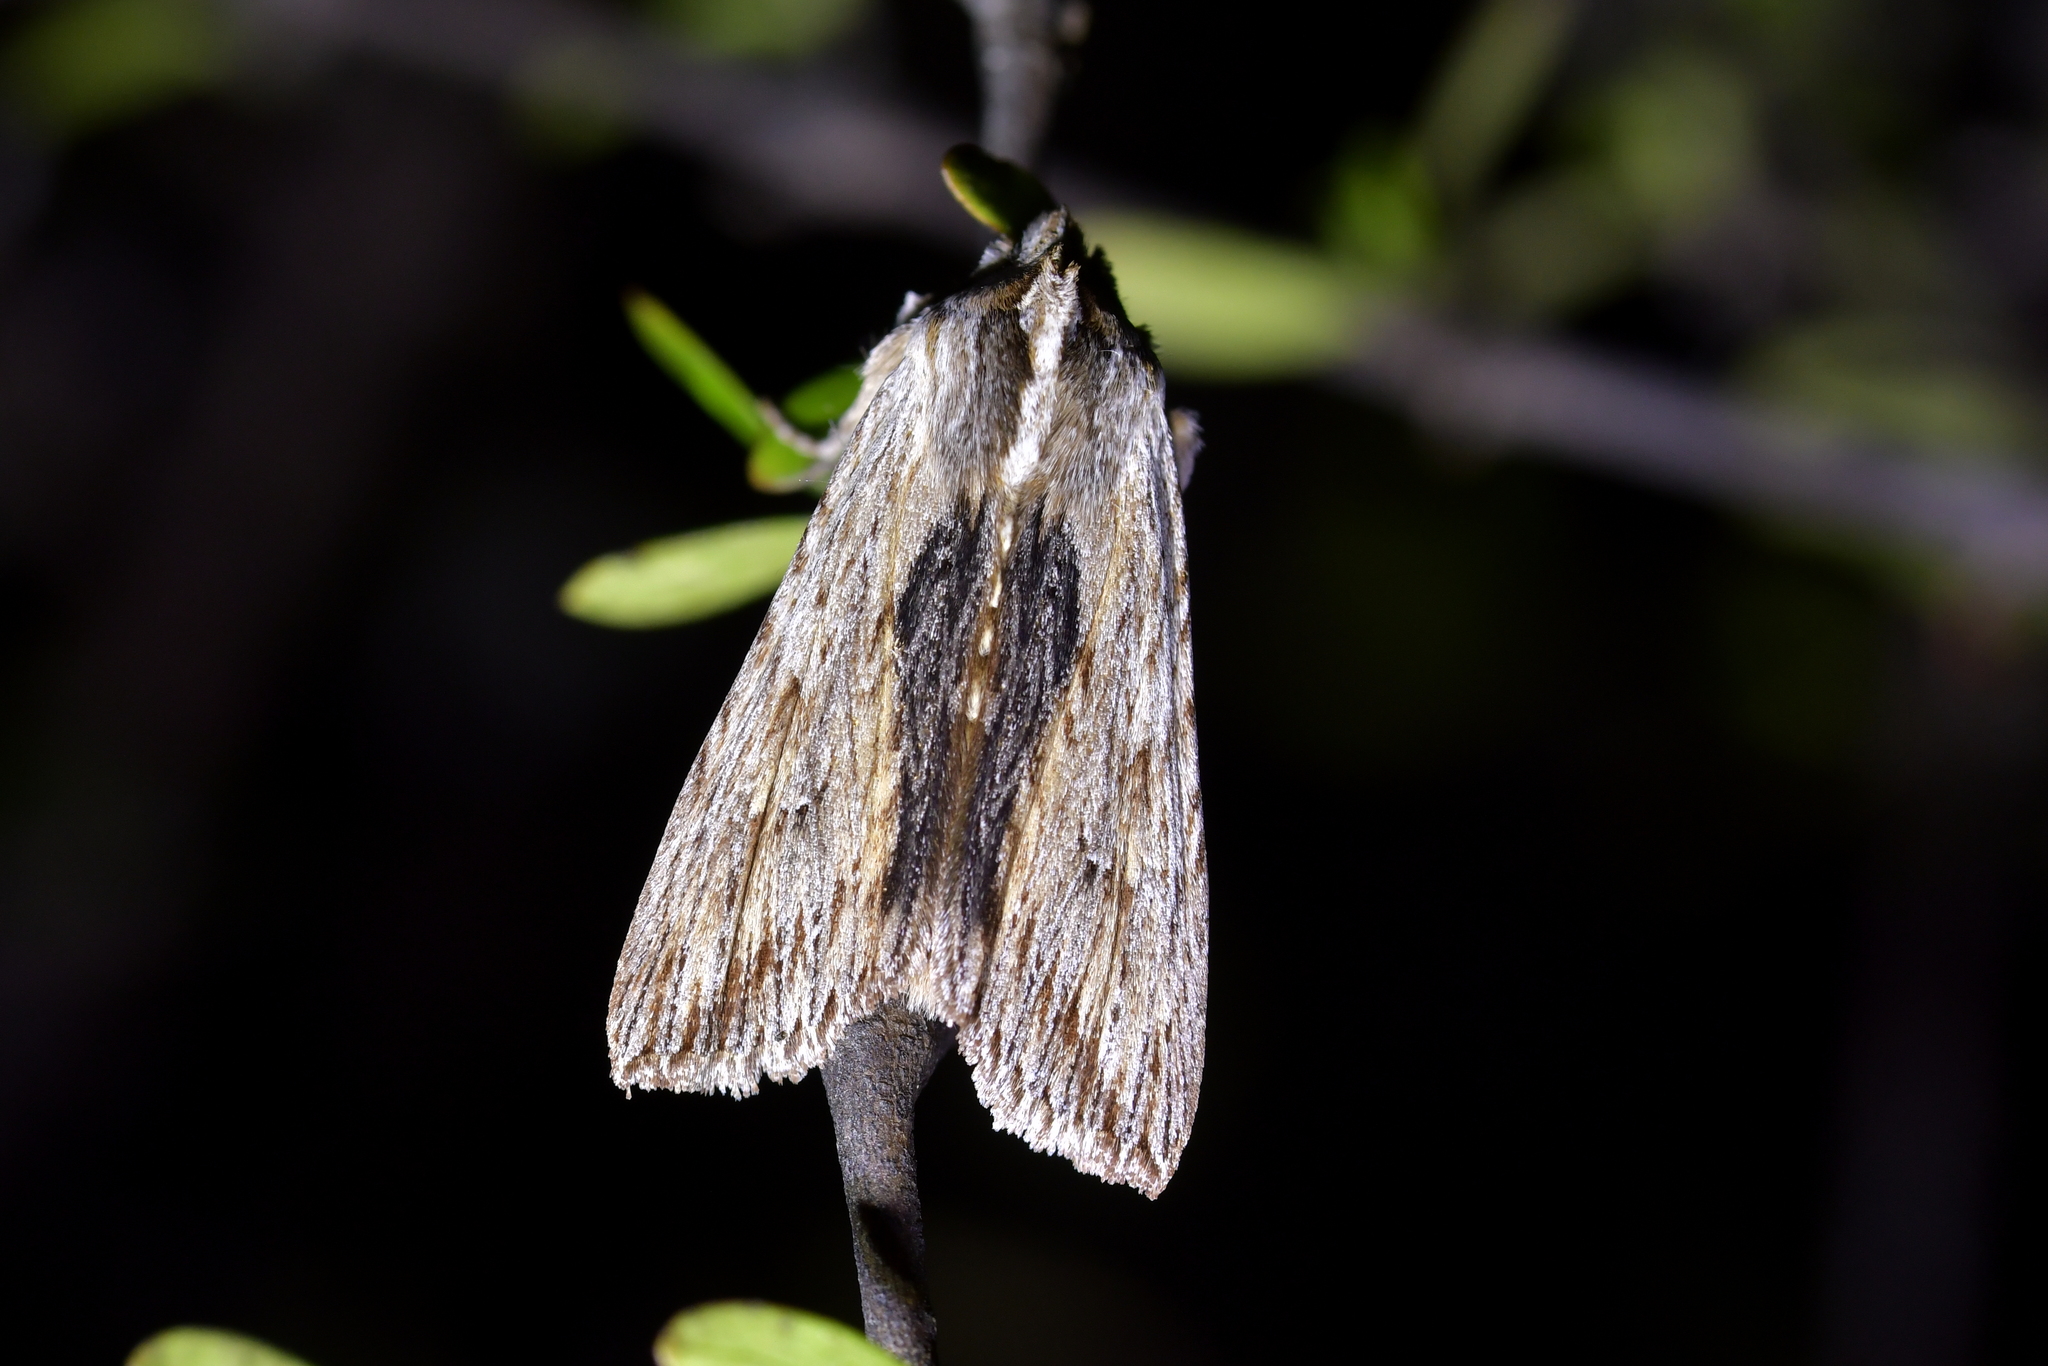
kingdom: Animalia
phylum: Arthropoda
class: Insecta
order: Lepidoptera
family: Noctuidae
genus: Physetica
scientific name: Physetica prionistis
